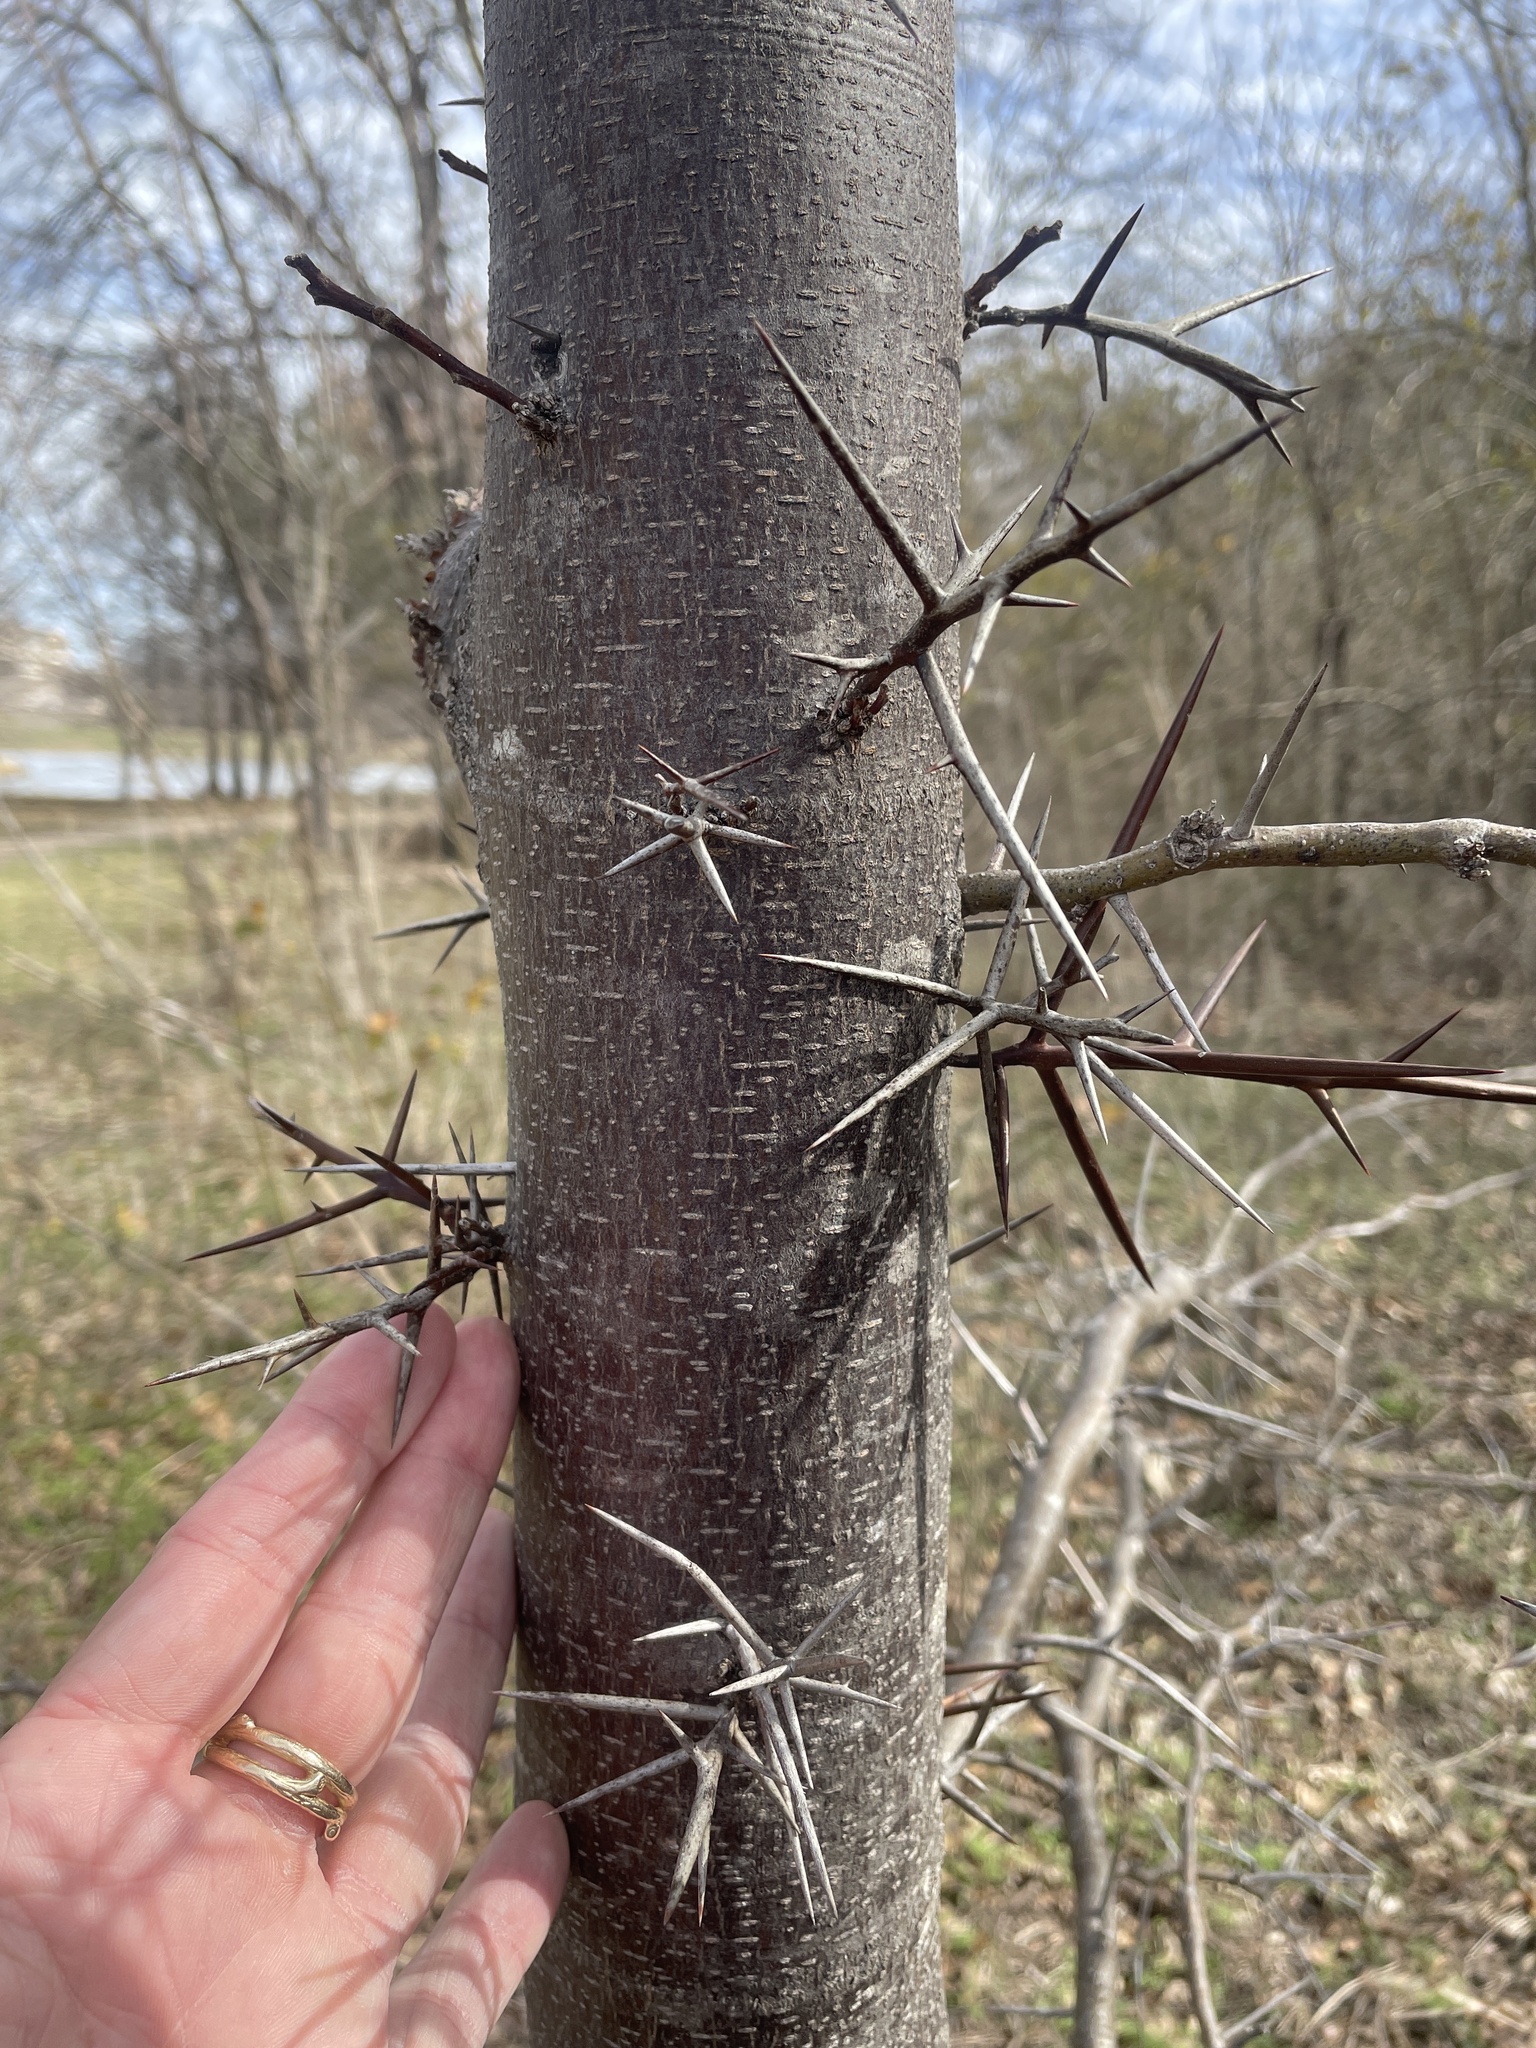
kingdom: Plantae
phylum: Tracheophyta
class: Magnoliopsida
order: Fabales
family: Fabaceae
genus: Gleditsia
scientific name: Gleditsia triacanthos
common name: Common honeylocust
